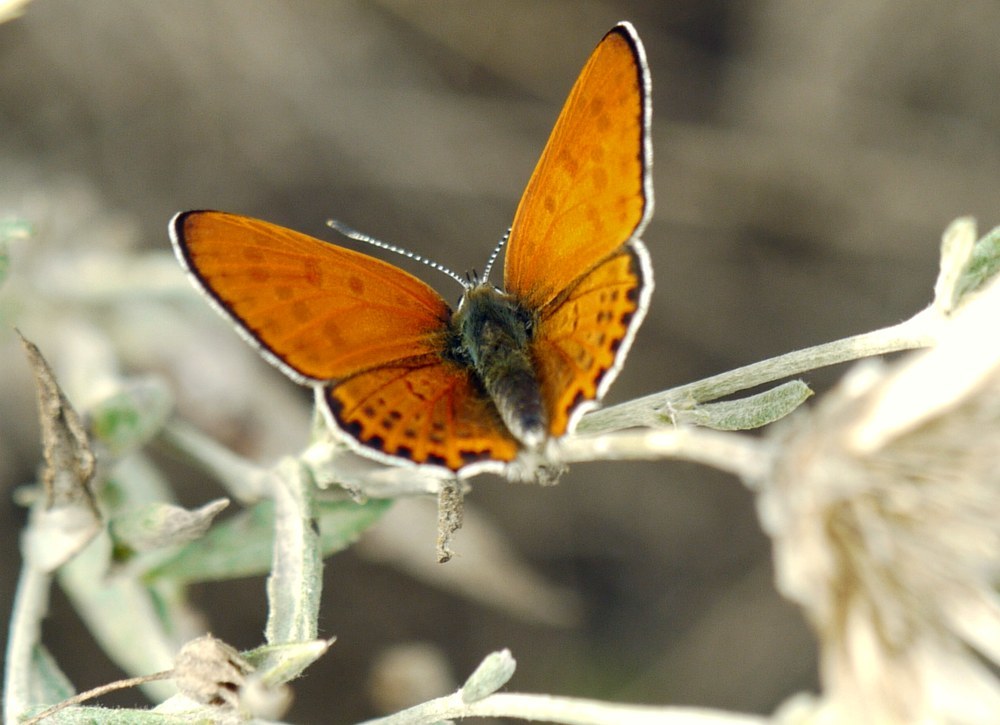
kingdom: Animalia
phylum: Arthropoda
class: Insecta
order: Lepidoptera
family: Lycaenidae
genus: Thersamonia
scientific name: Thersamonia thersamon
